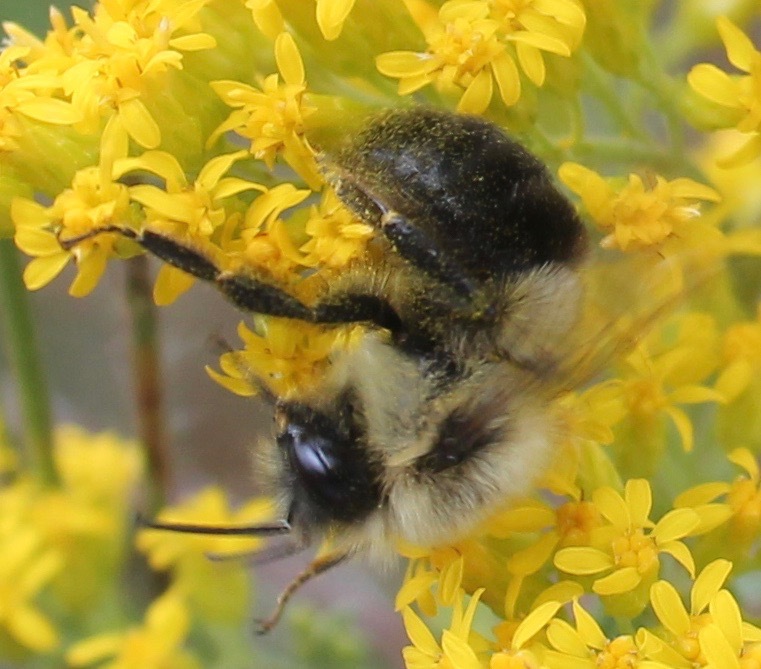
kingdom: Animalia
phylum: Arthropoda
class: Insecta
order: Hymenoptera
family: Apidae
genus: Bombus
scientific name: Bombus impatiens
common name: Common eastern bumble bee
